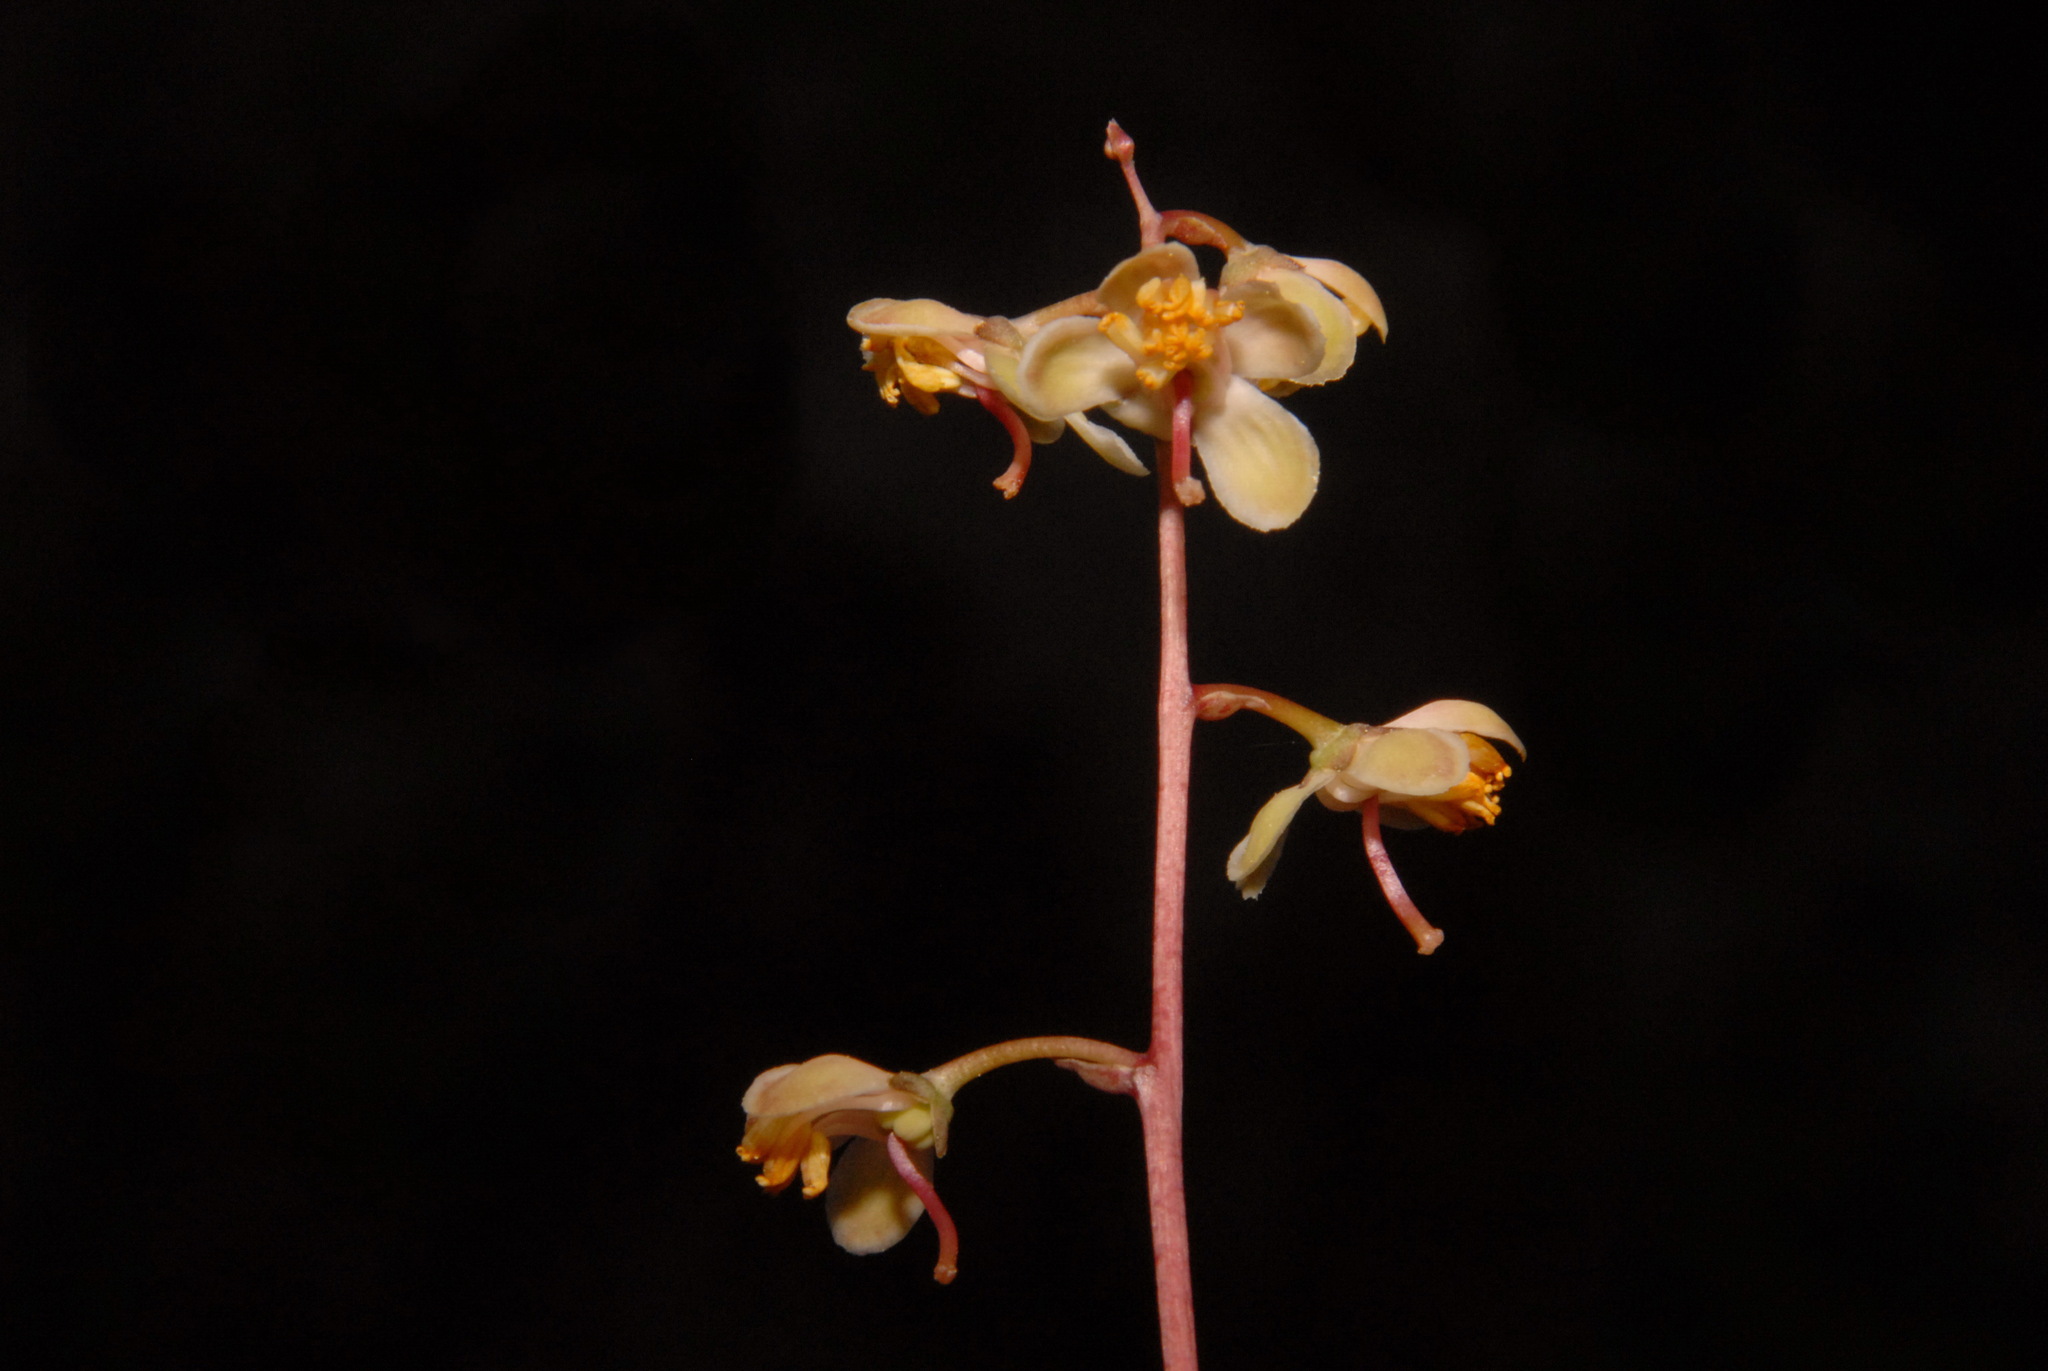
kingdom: Plantae
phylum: Tracheophyta
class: Magnoliopsida
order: Ericales
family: Ericaceae
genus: Pyrola
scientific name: Pyrola picta
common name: White-vein wintergreen
